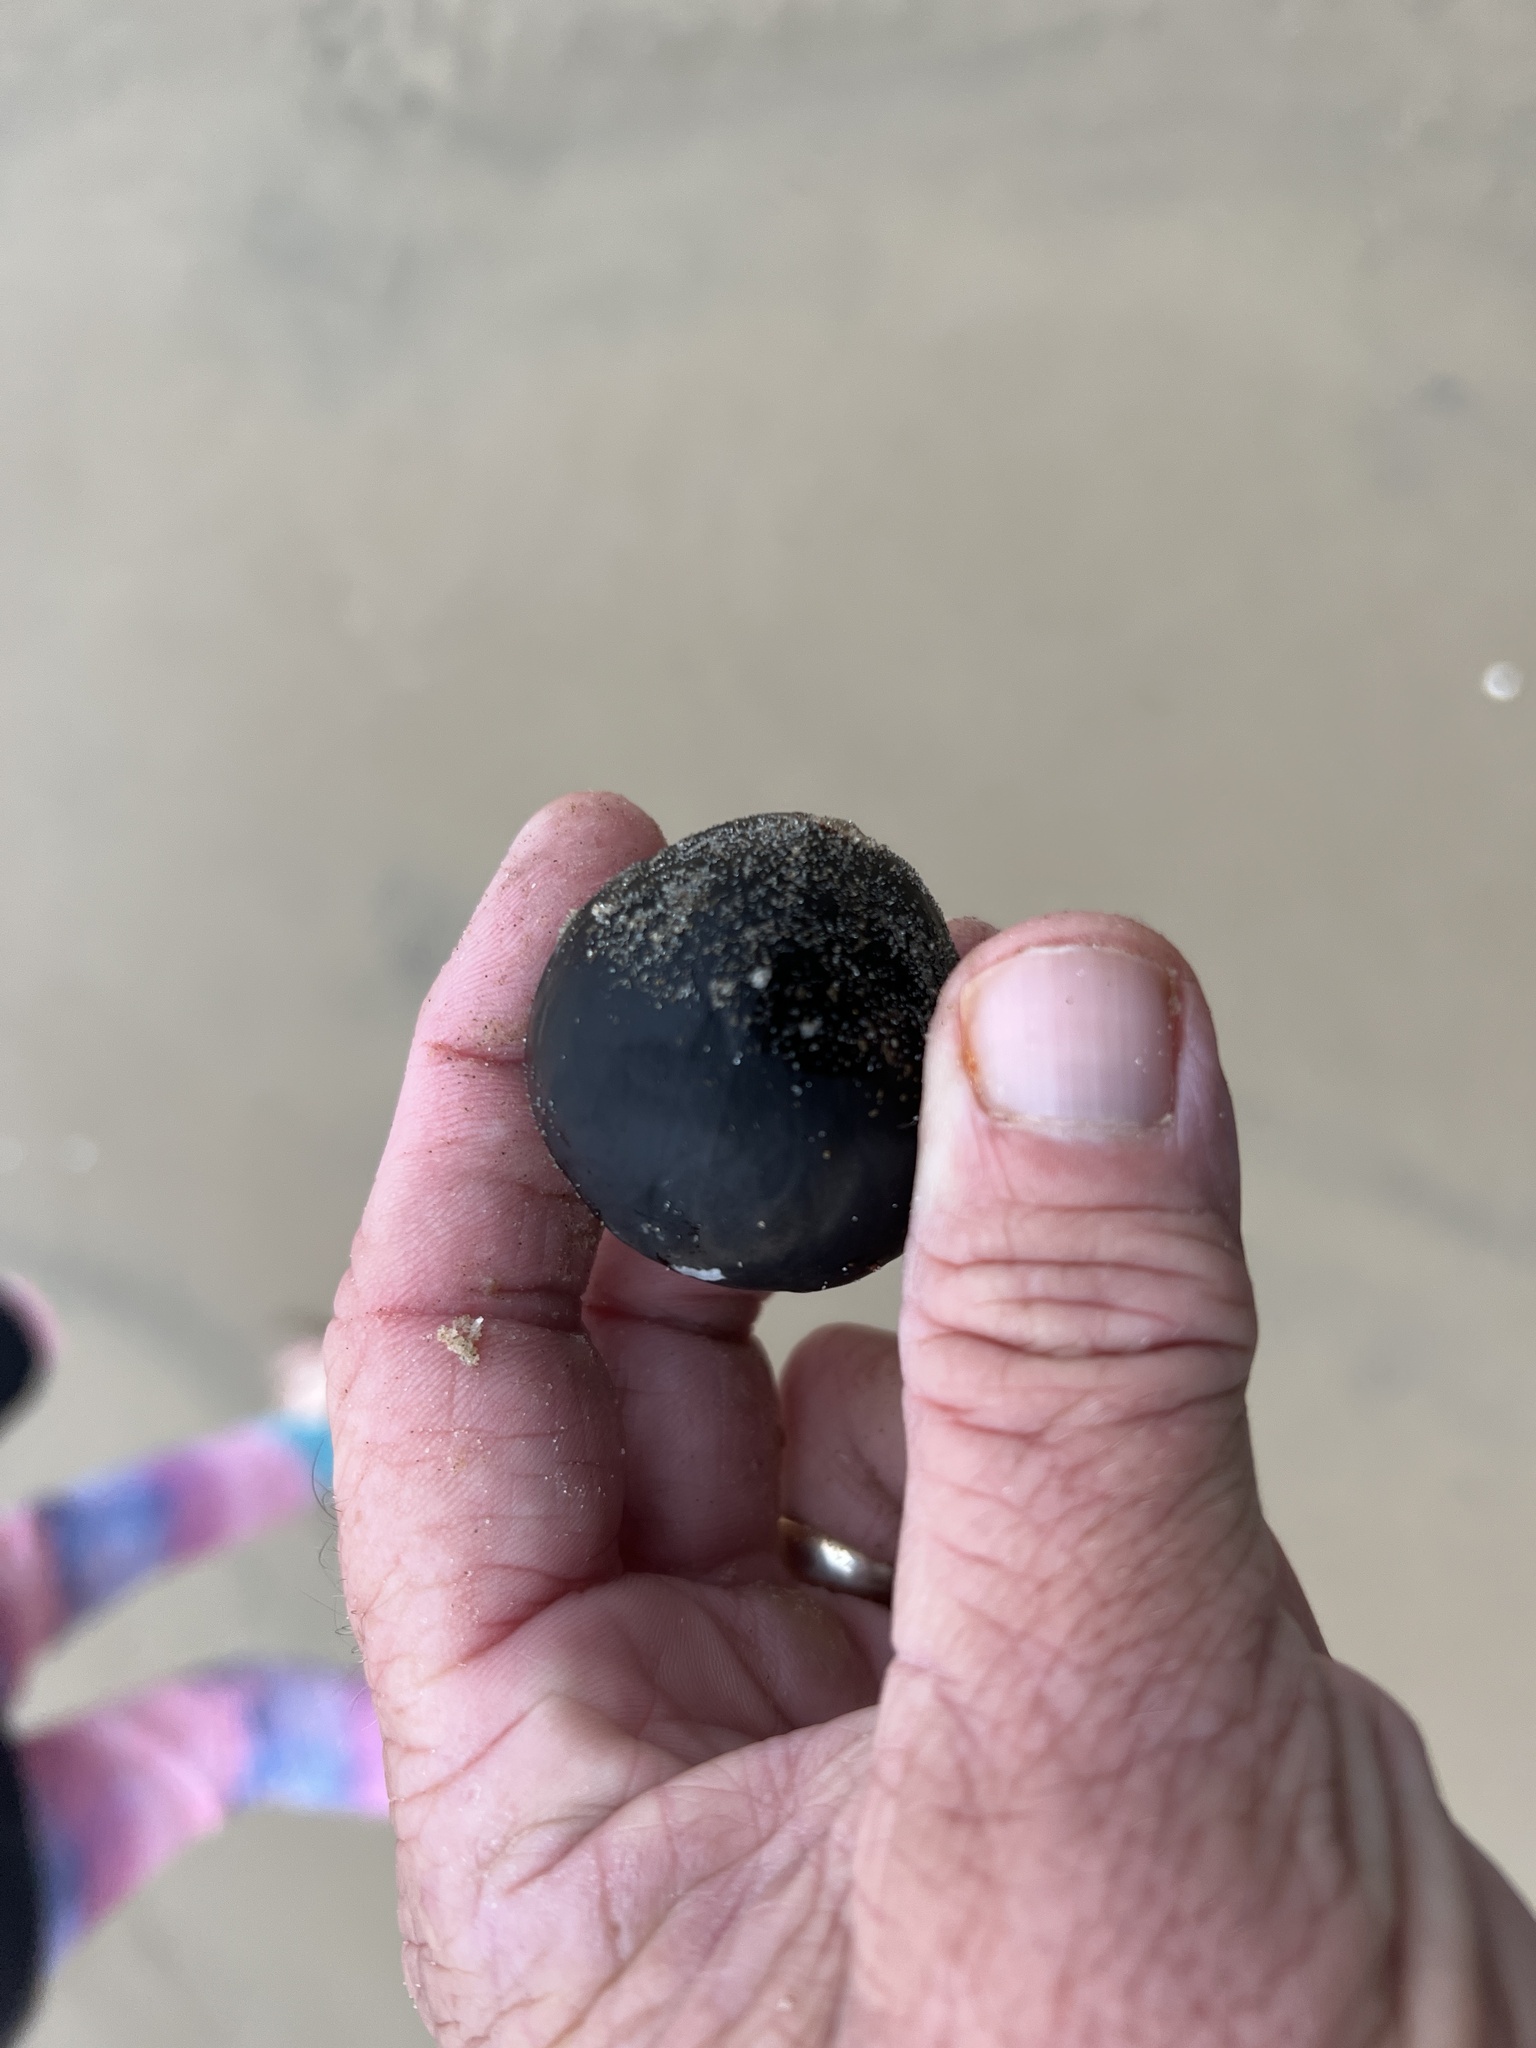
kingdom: Plantae
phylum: Tracheophyta
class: Liliopsida
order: Arecales
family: Arecaceae
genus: Manicaria
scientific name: Manicaria saccifera
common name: Sea coconut
